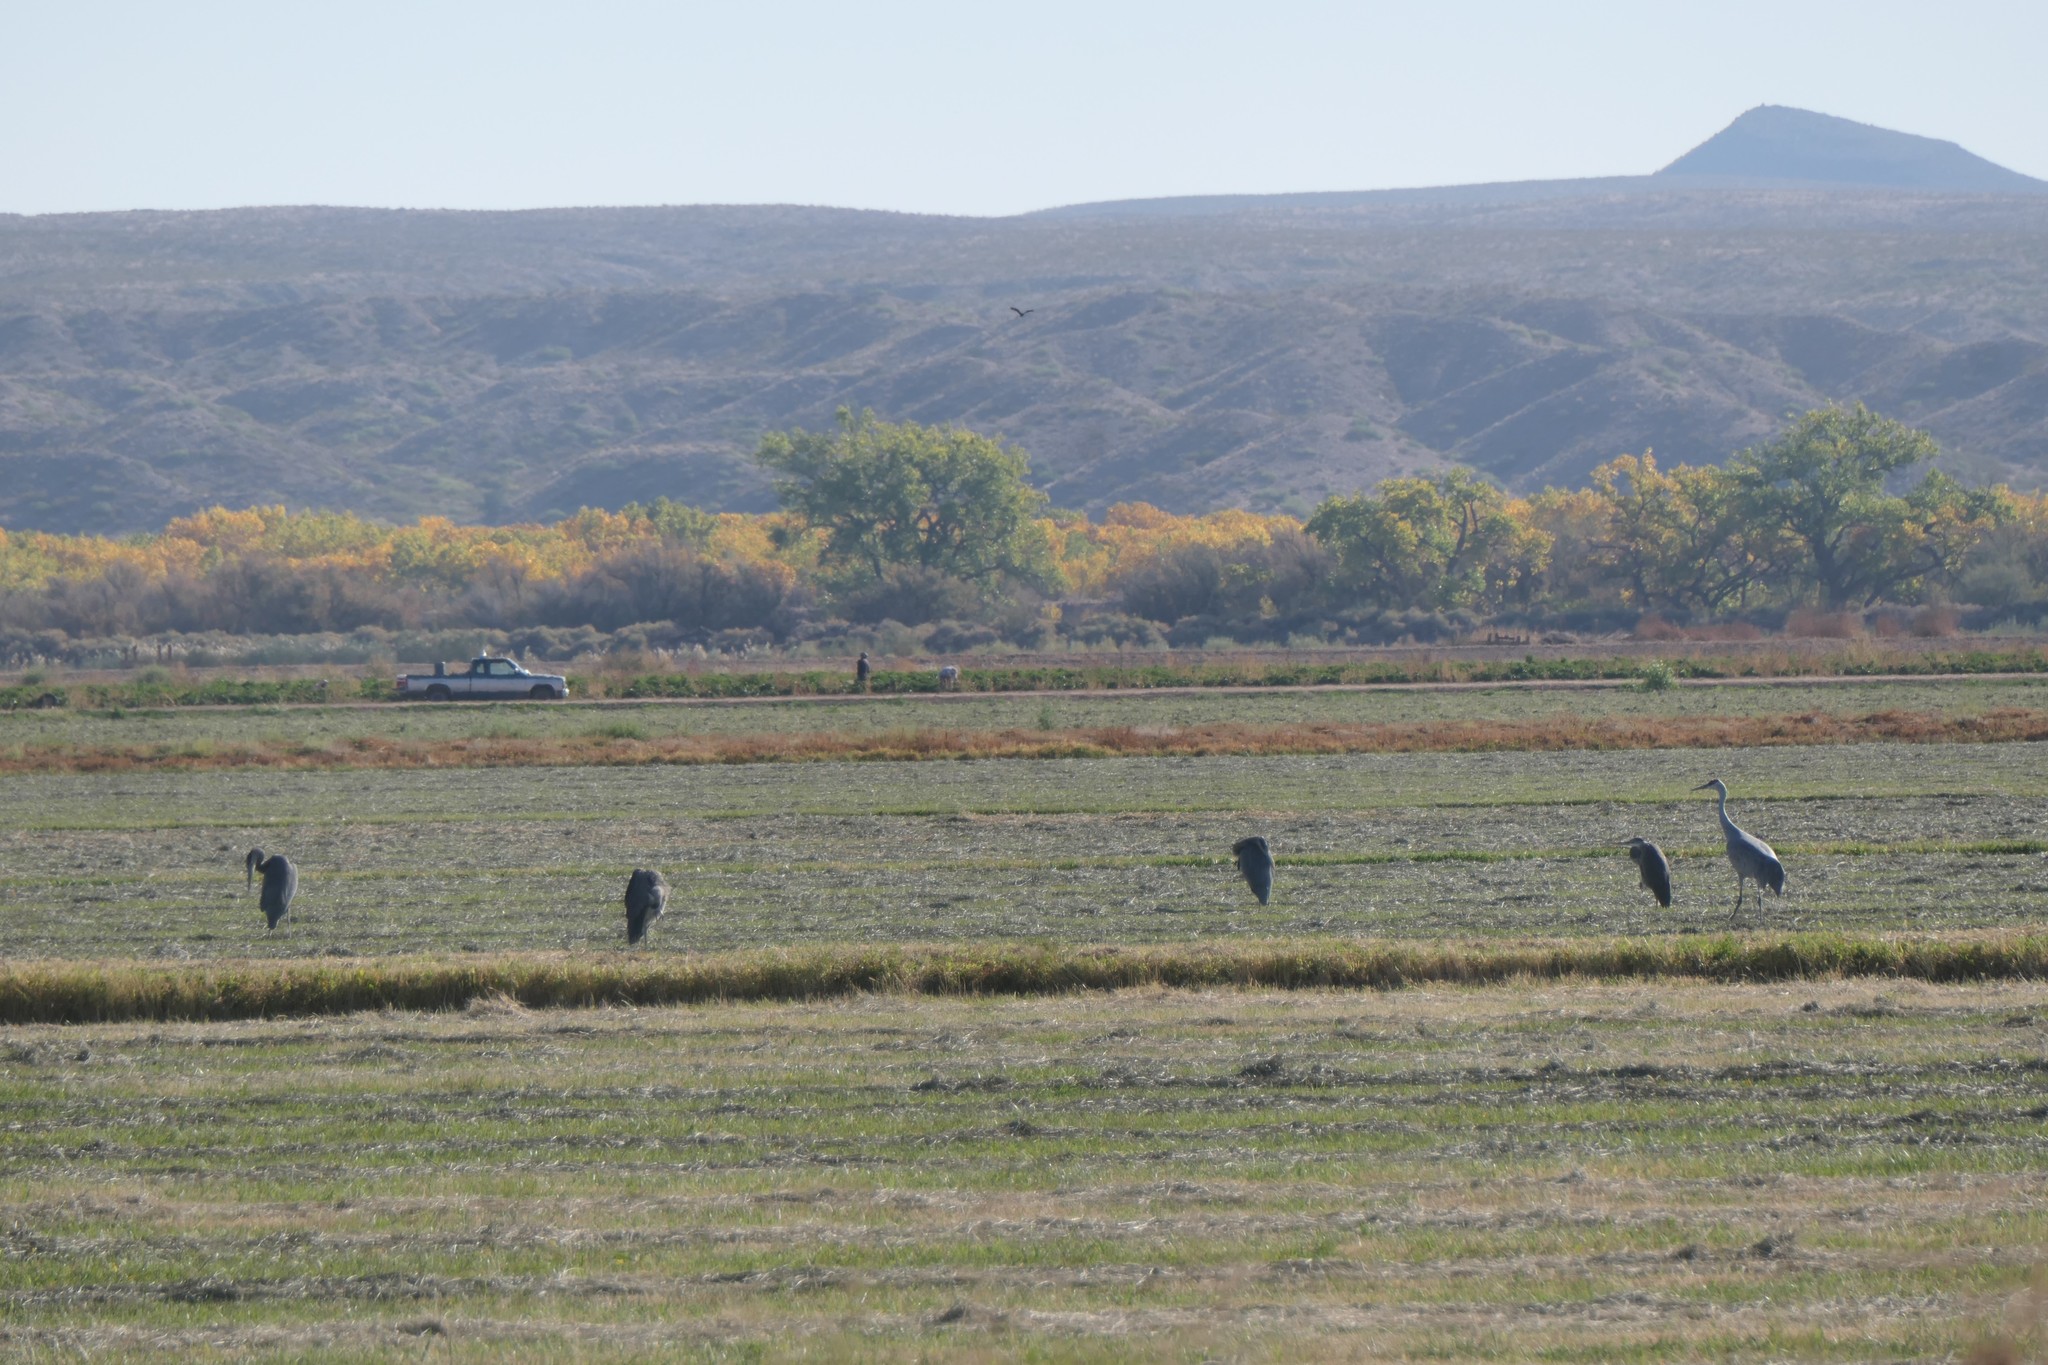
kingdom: Animalia
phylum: Chordata
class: Aves
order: Gruiformes
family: Gruidae
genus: Grus
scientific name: Grus canadensis
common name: Sandhill crane
